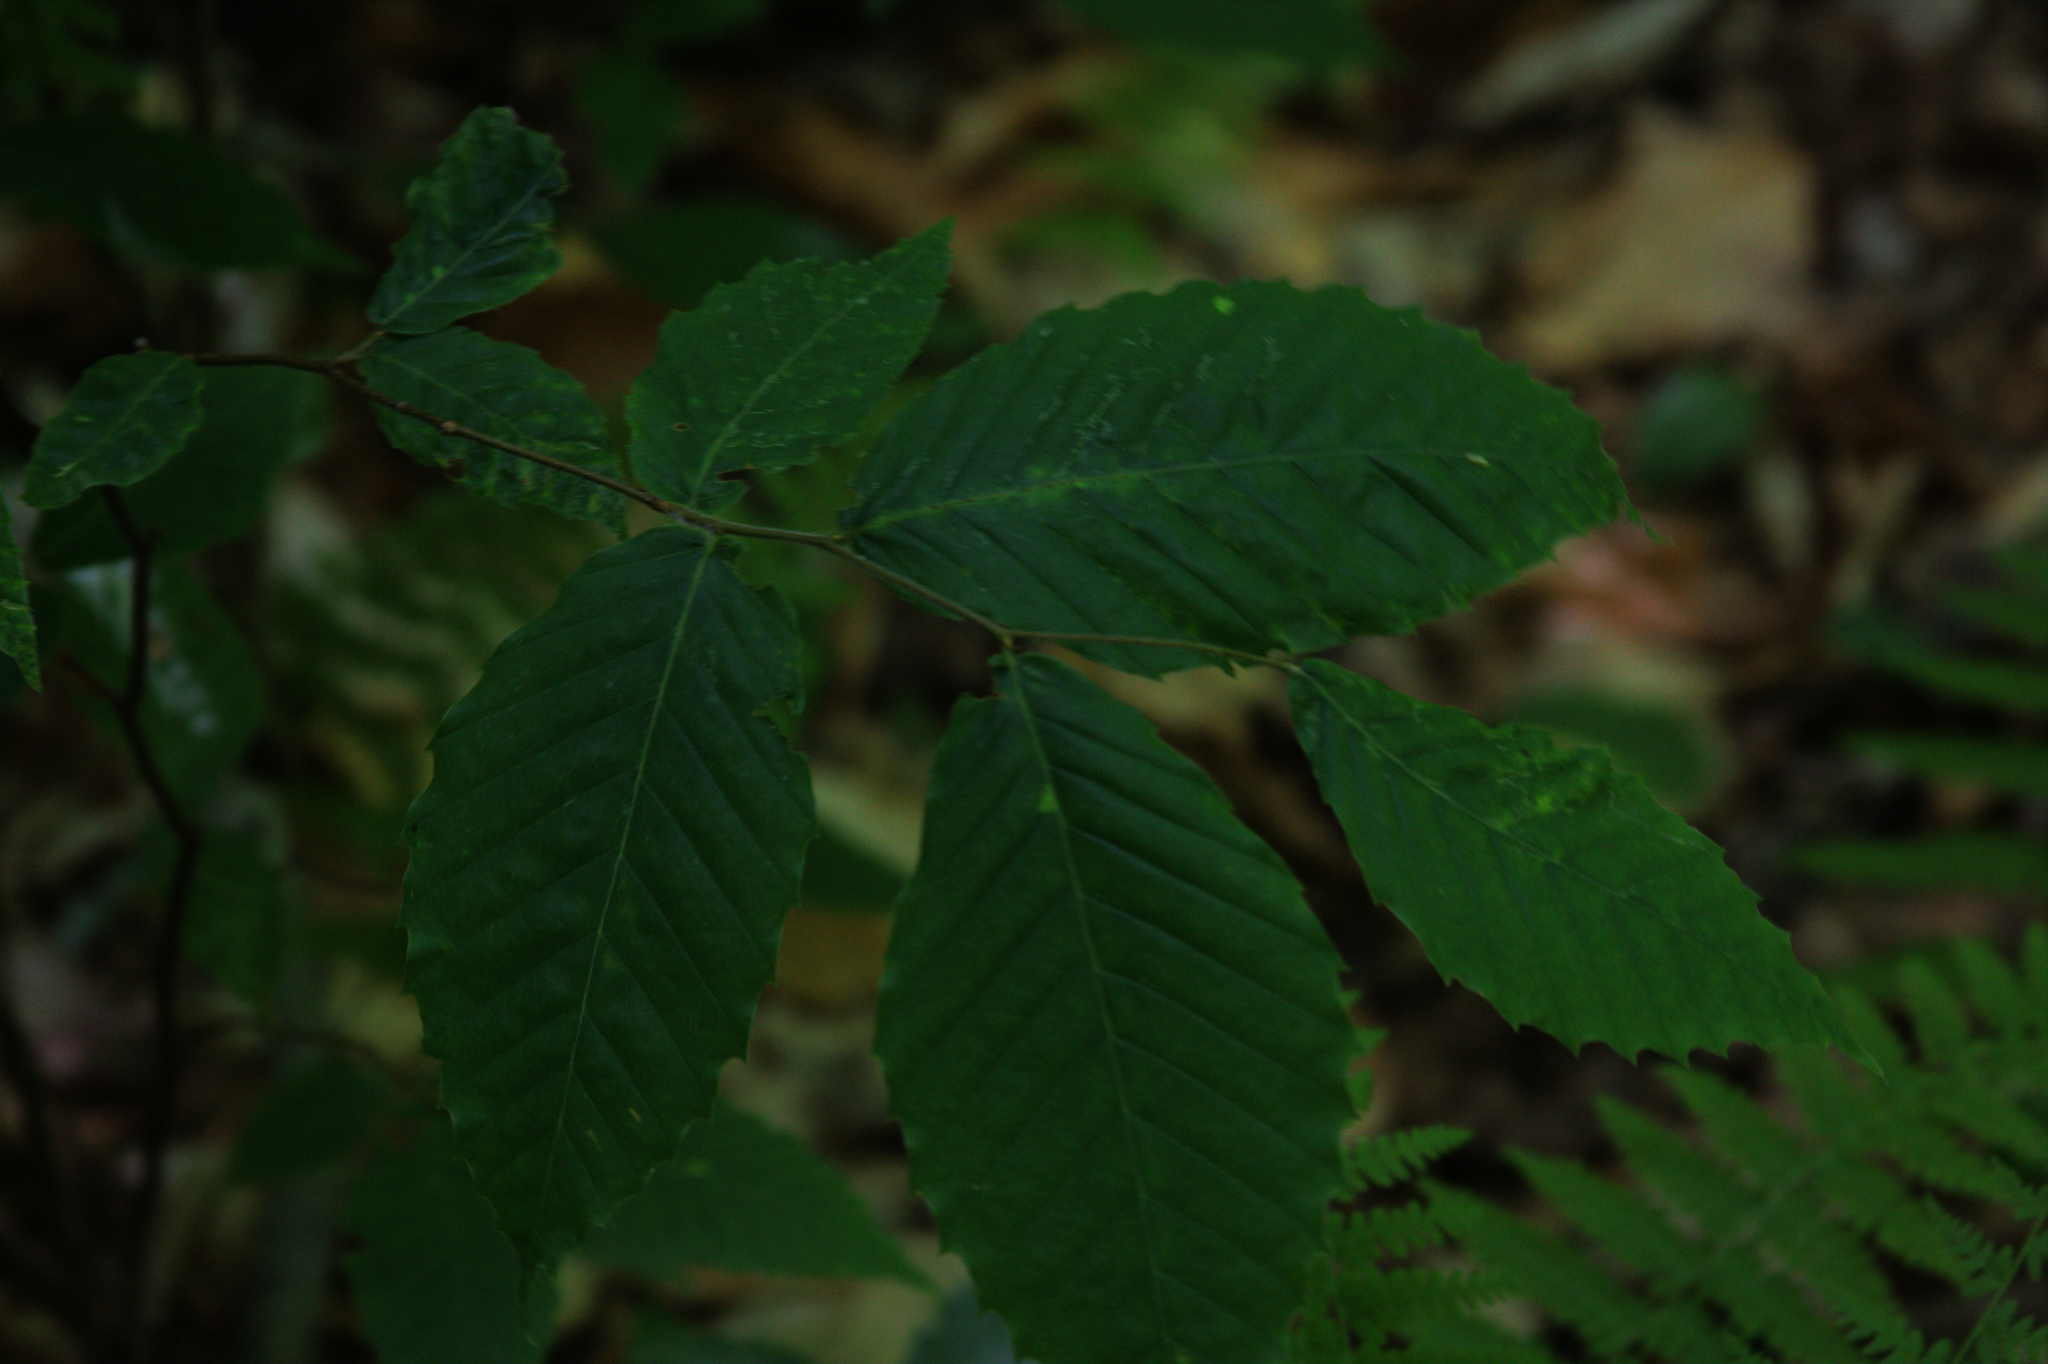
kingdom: Plantae
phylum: Tracheophyta
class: Magnoliopsida
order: Fagales
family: Fagaceae
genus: Fagus
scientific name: Fagus grandifolia
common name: American beech
